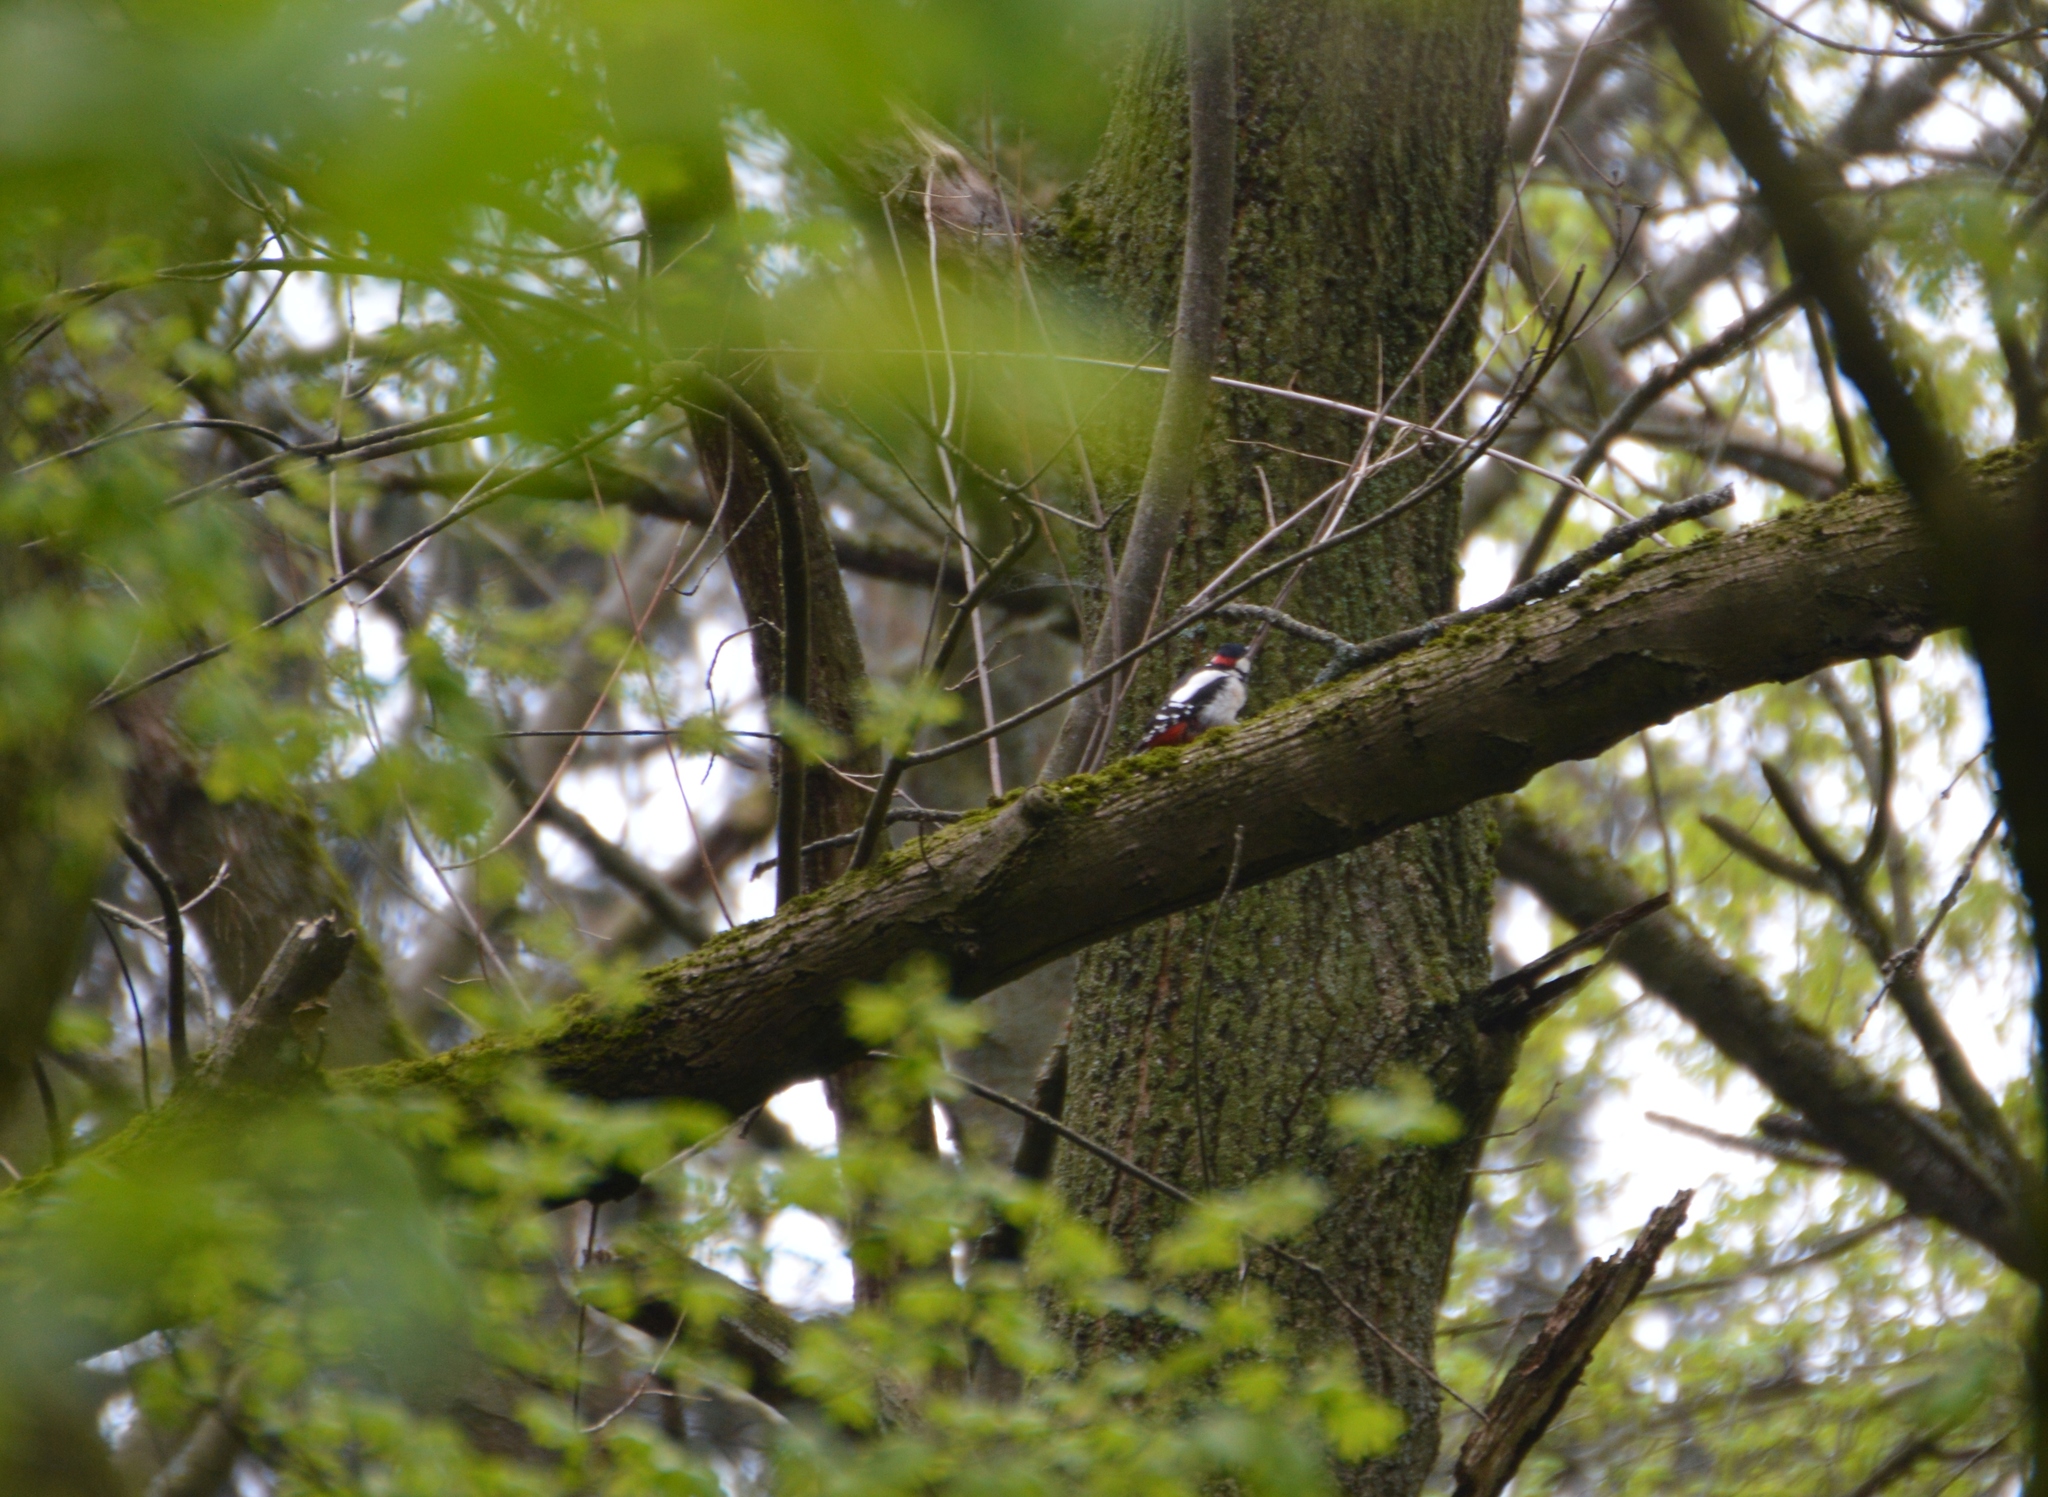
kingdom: Animalia
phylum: Chordata
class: Aves
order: Piciformes
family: Picidae
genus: Dendrocopos
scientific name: Dendrocopos major
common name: Great spotted woodpecker
